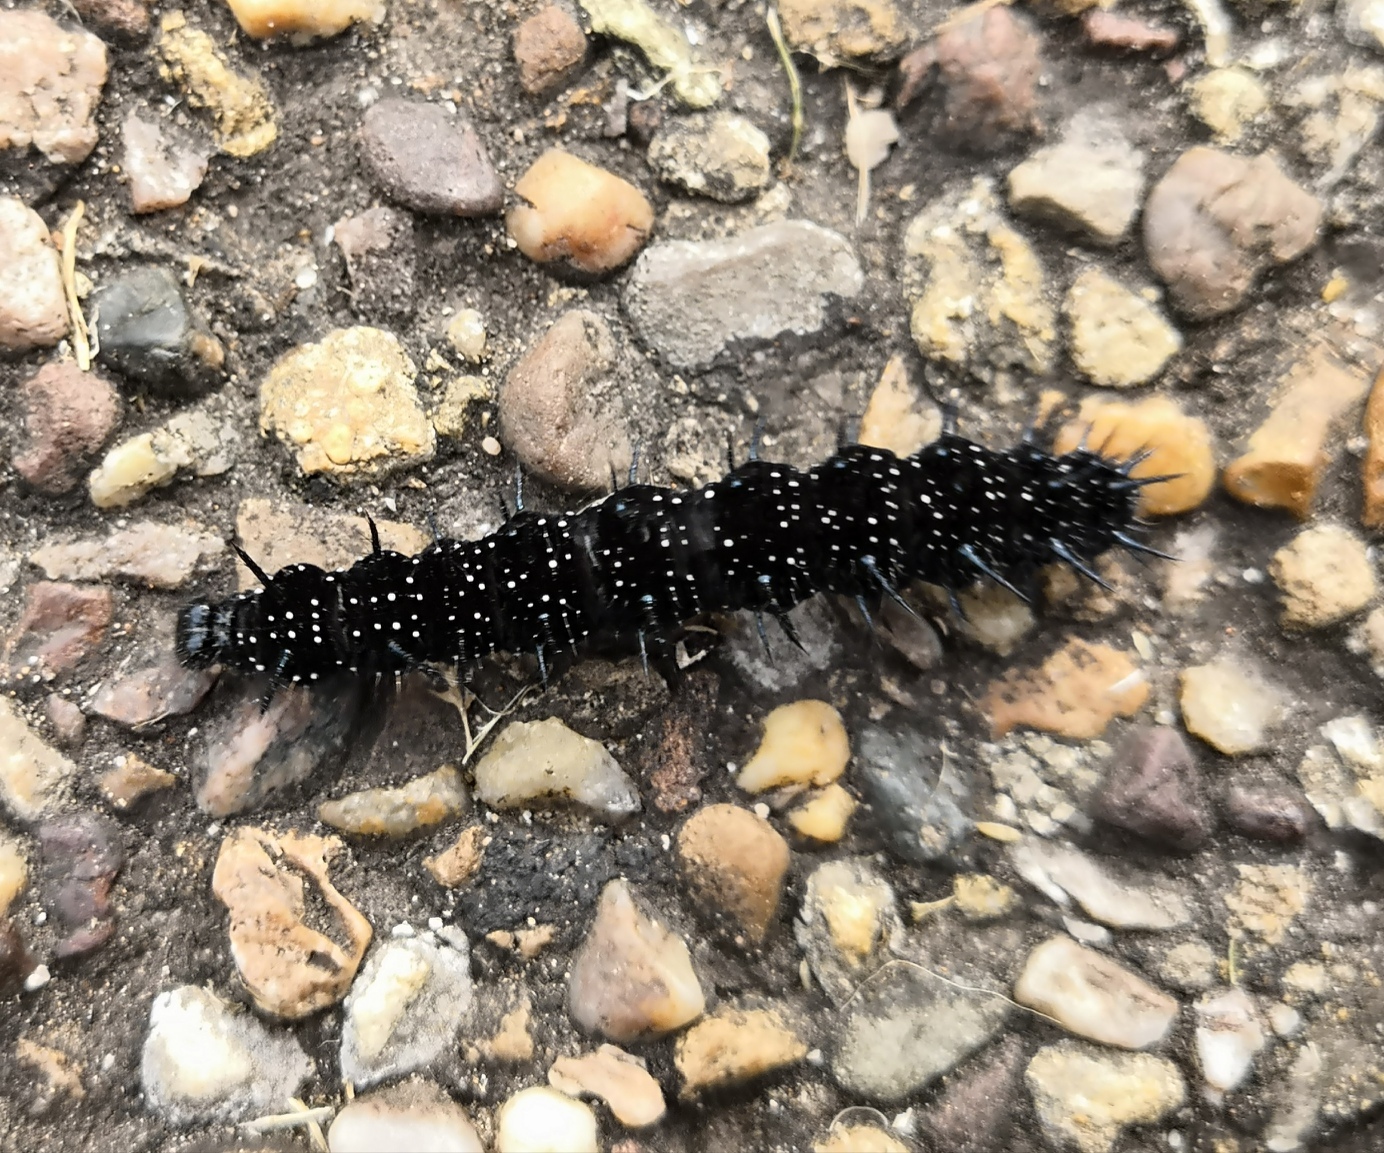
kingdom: Animalia
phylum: Arthropoda
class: Insecta
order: Lepidoptera
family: Nymphalidae
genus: Aglais
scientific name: Aglais io
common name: Peacock
